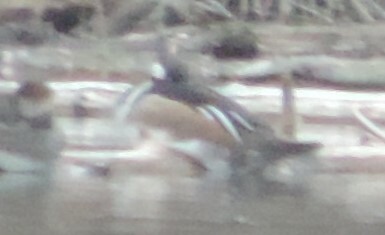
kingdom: Animalia
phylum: Chordata
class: Aves
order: Anseriformes
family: Anatidae
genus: Lophodytes
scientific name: Lophodytes cucullatus
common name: Hooded merganser
